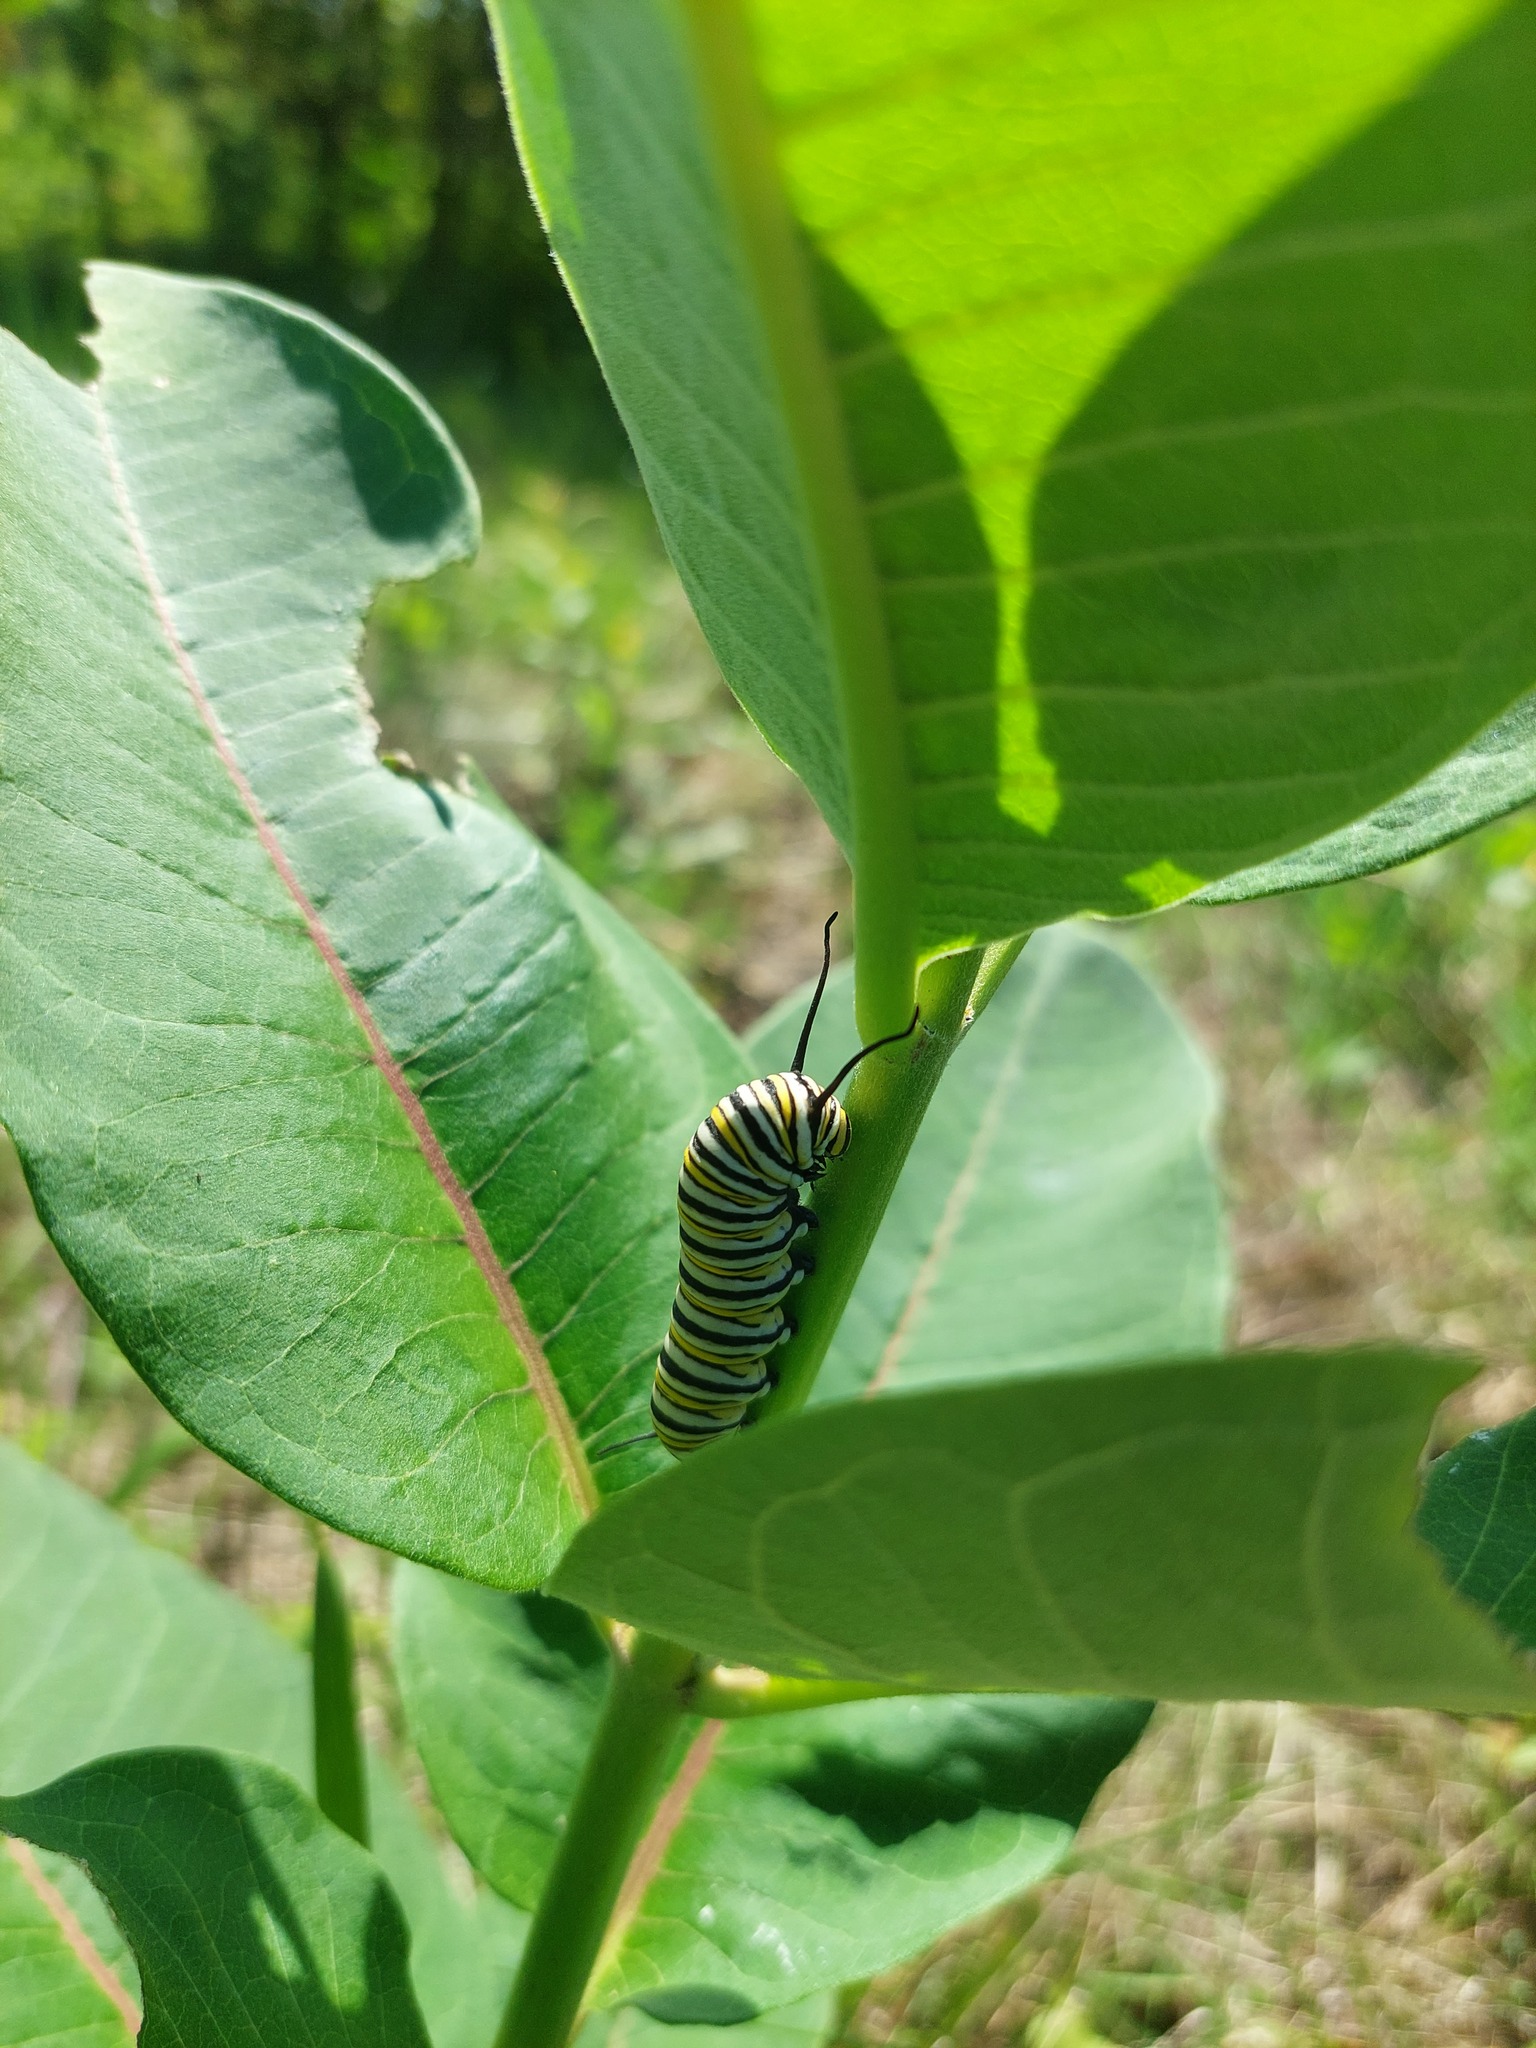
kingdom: Animalia
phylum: Arthropoda
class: Insecta
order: Lepidoptera
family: Nymphalidae
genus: Danaus
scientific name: Danaus plexippus
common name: Monarch
